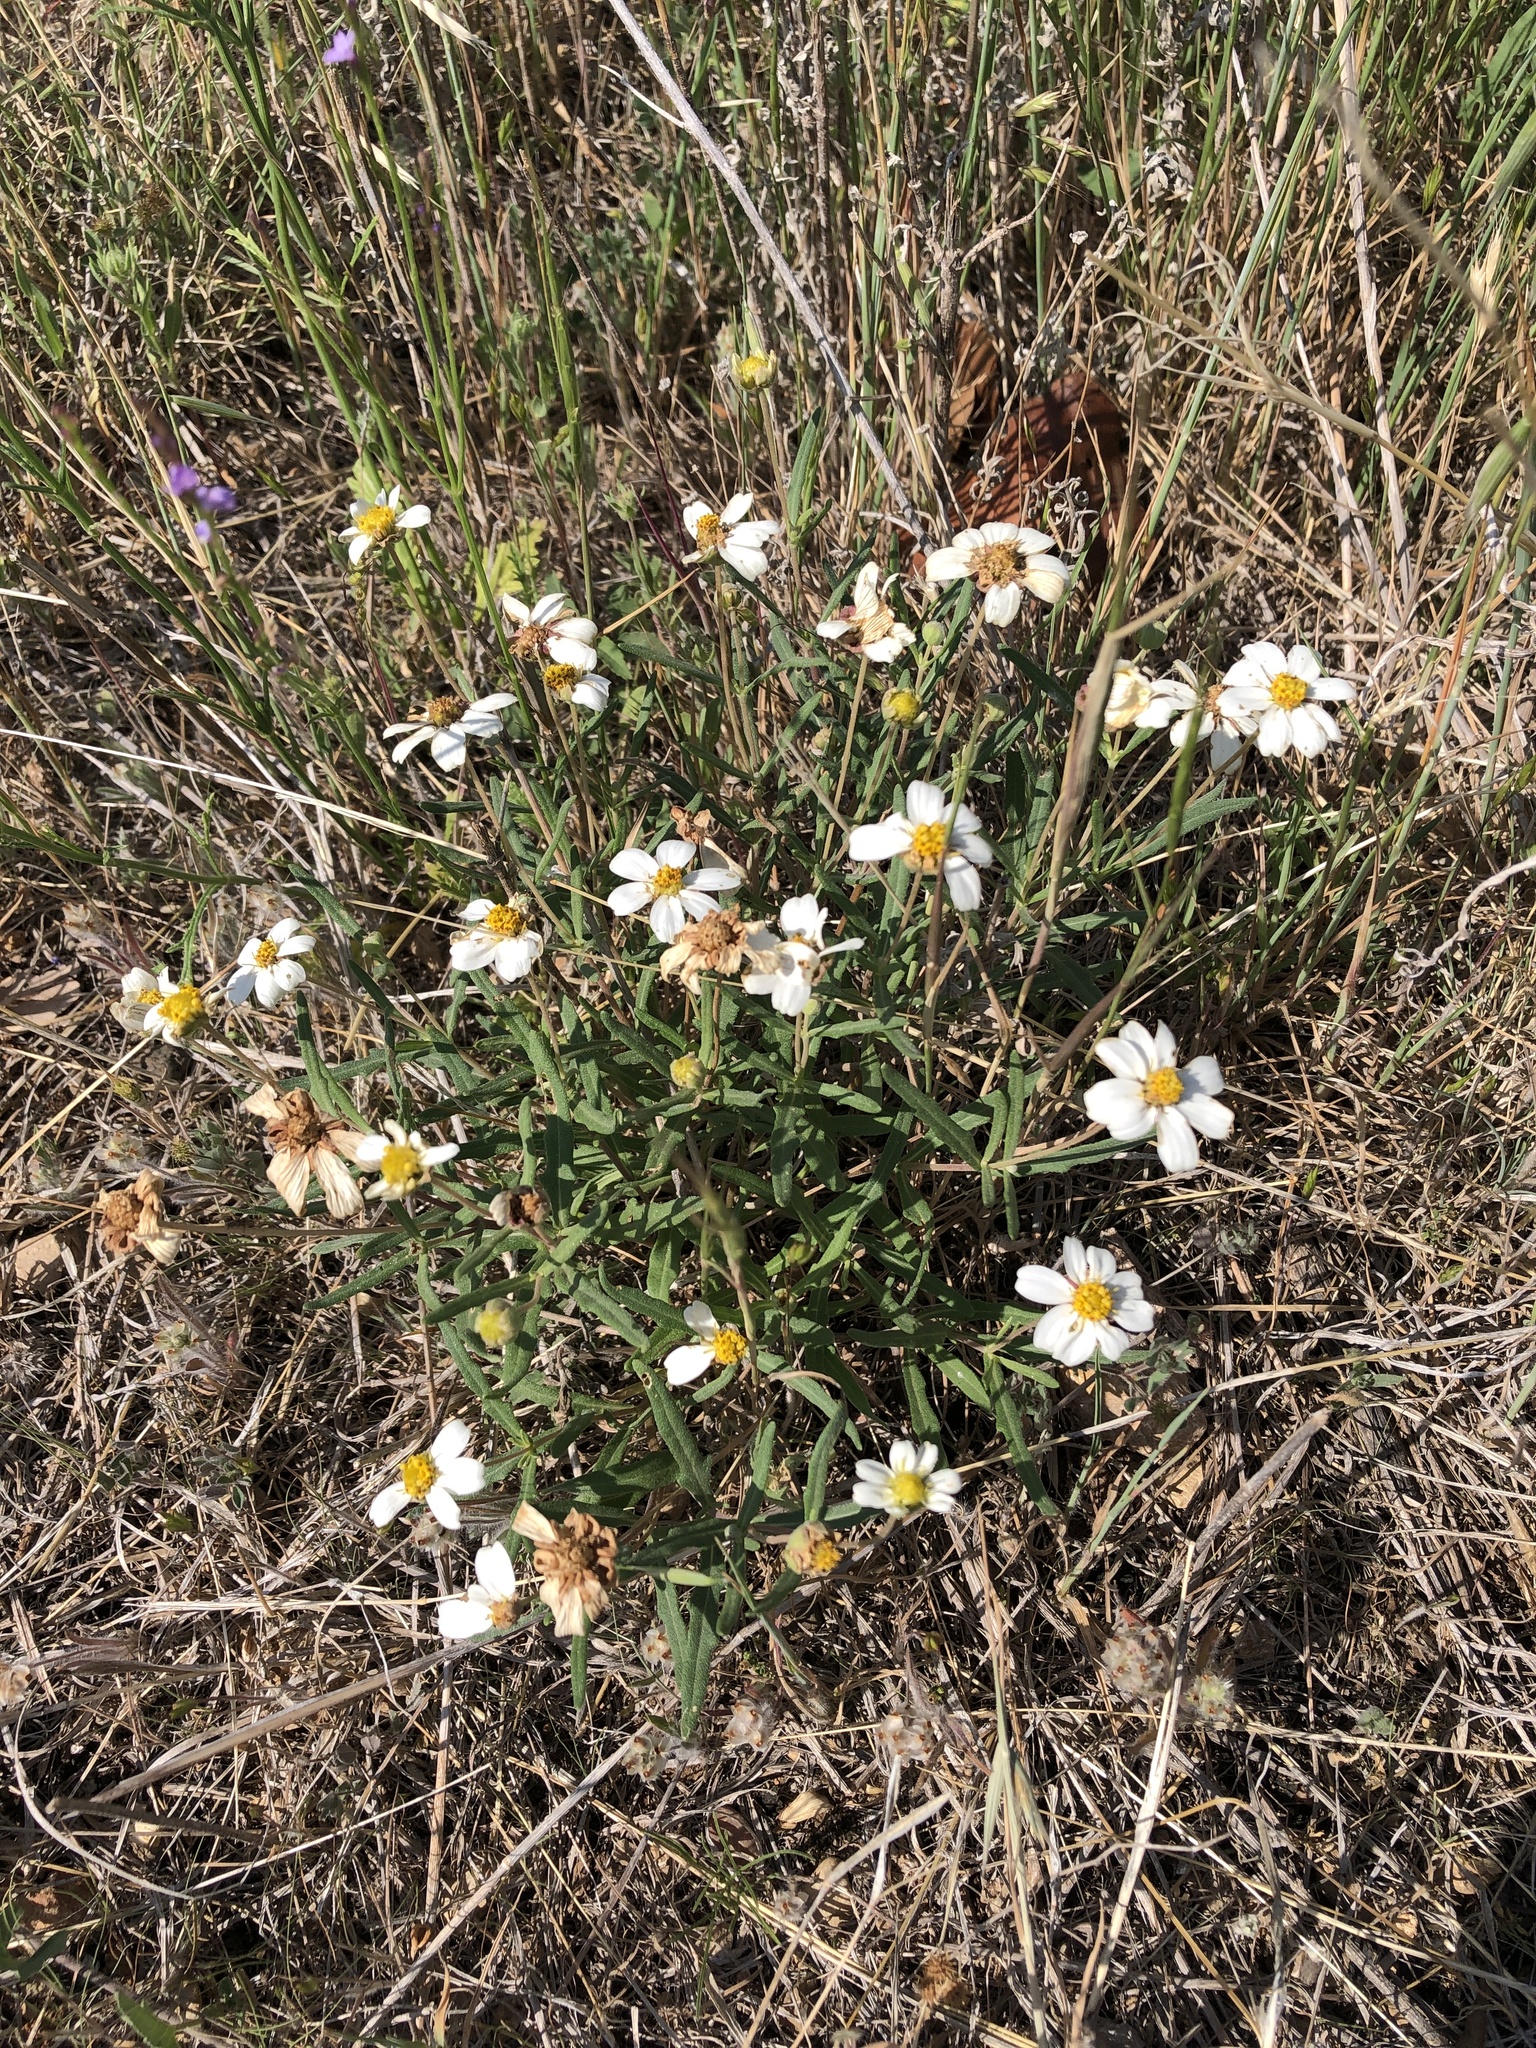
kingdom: Plantae
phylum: Tracheophyta
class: Magnoliopsida
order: Asterales
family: Asteraceae
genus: Melampodium
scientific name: Melampodium leucanthum
